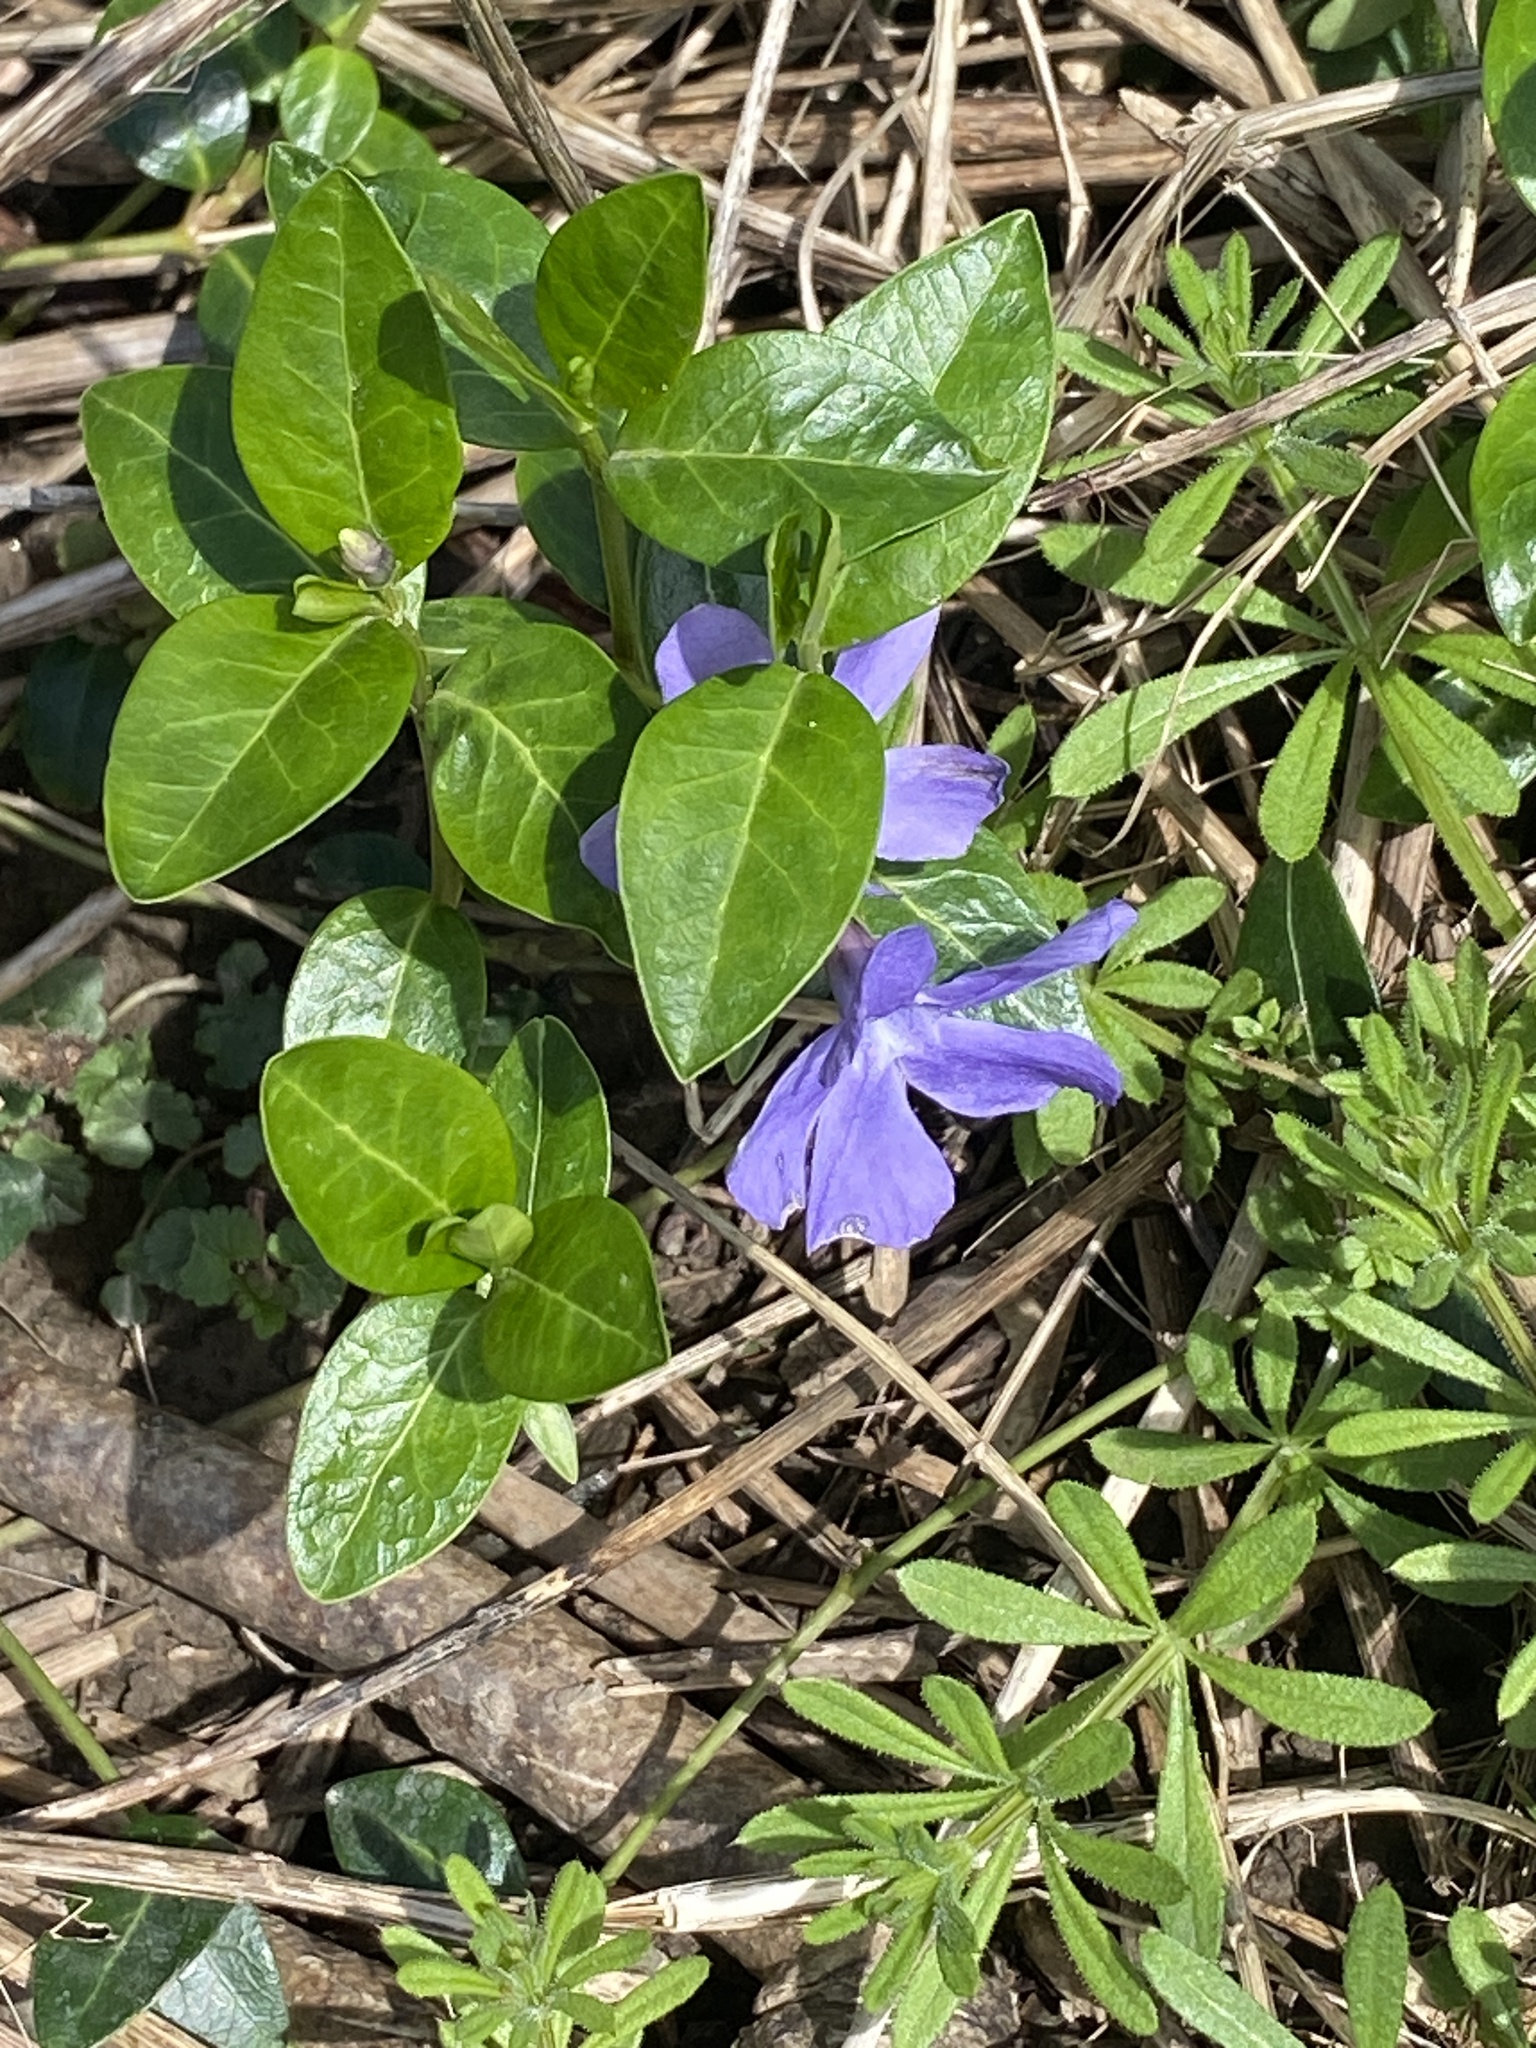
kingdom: Plantae
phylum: Tracheophyta
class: Magnoliopsida
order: Gentianales
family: Apocynaceae
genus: Vinca
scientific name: Vinca minor
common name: Lesser periwinkle
